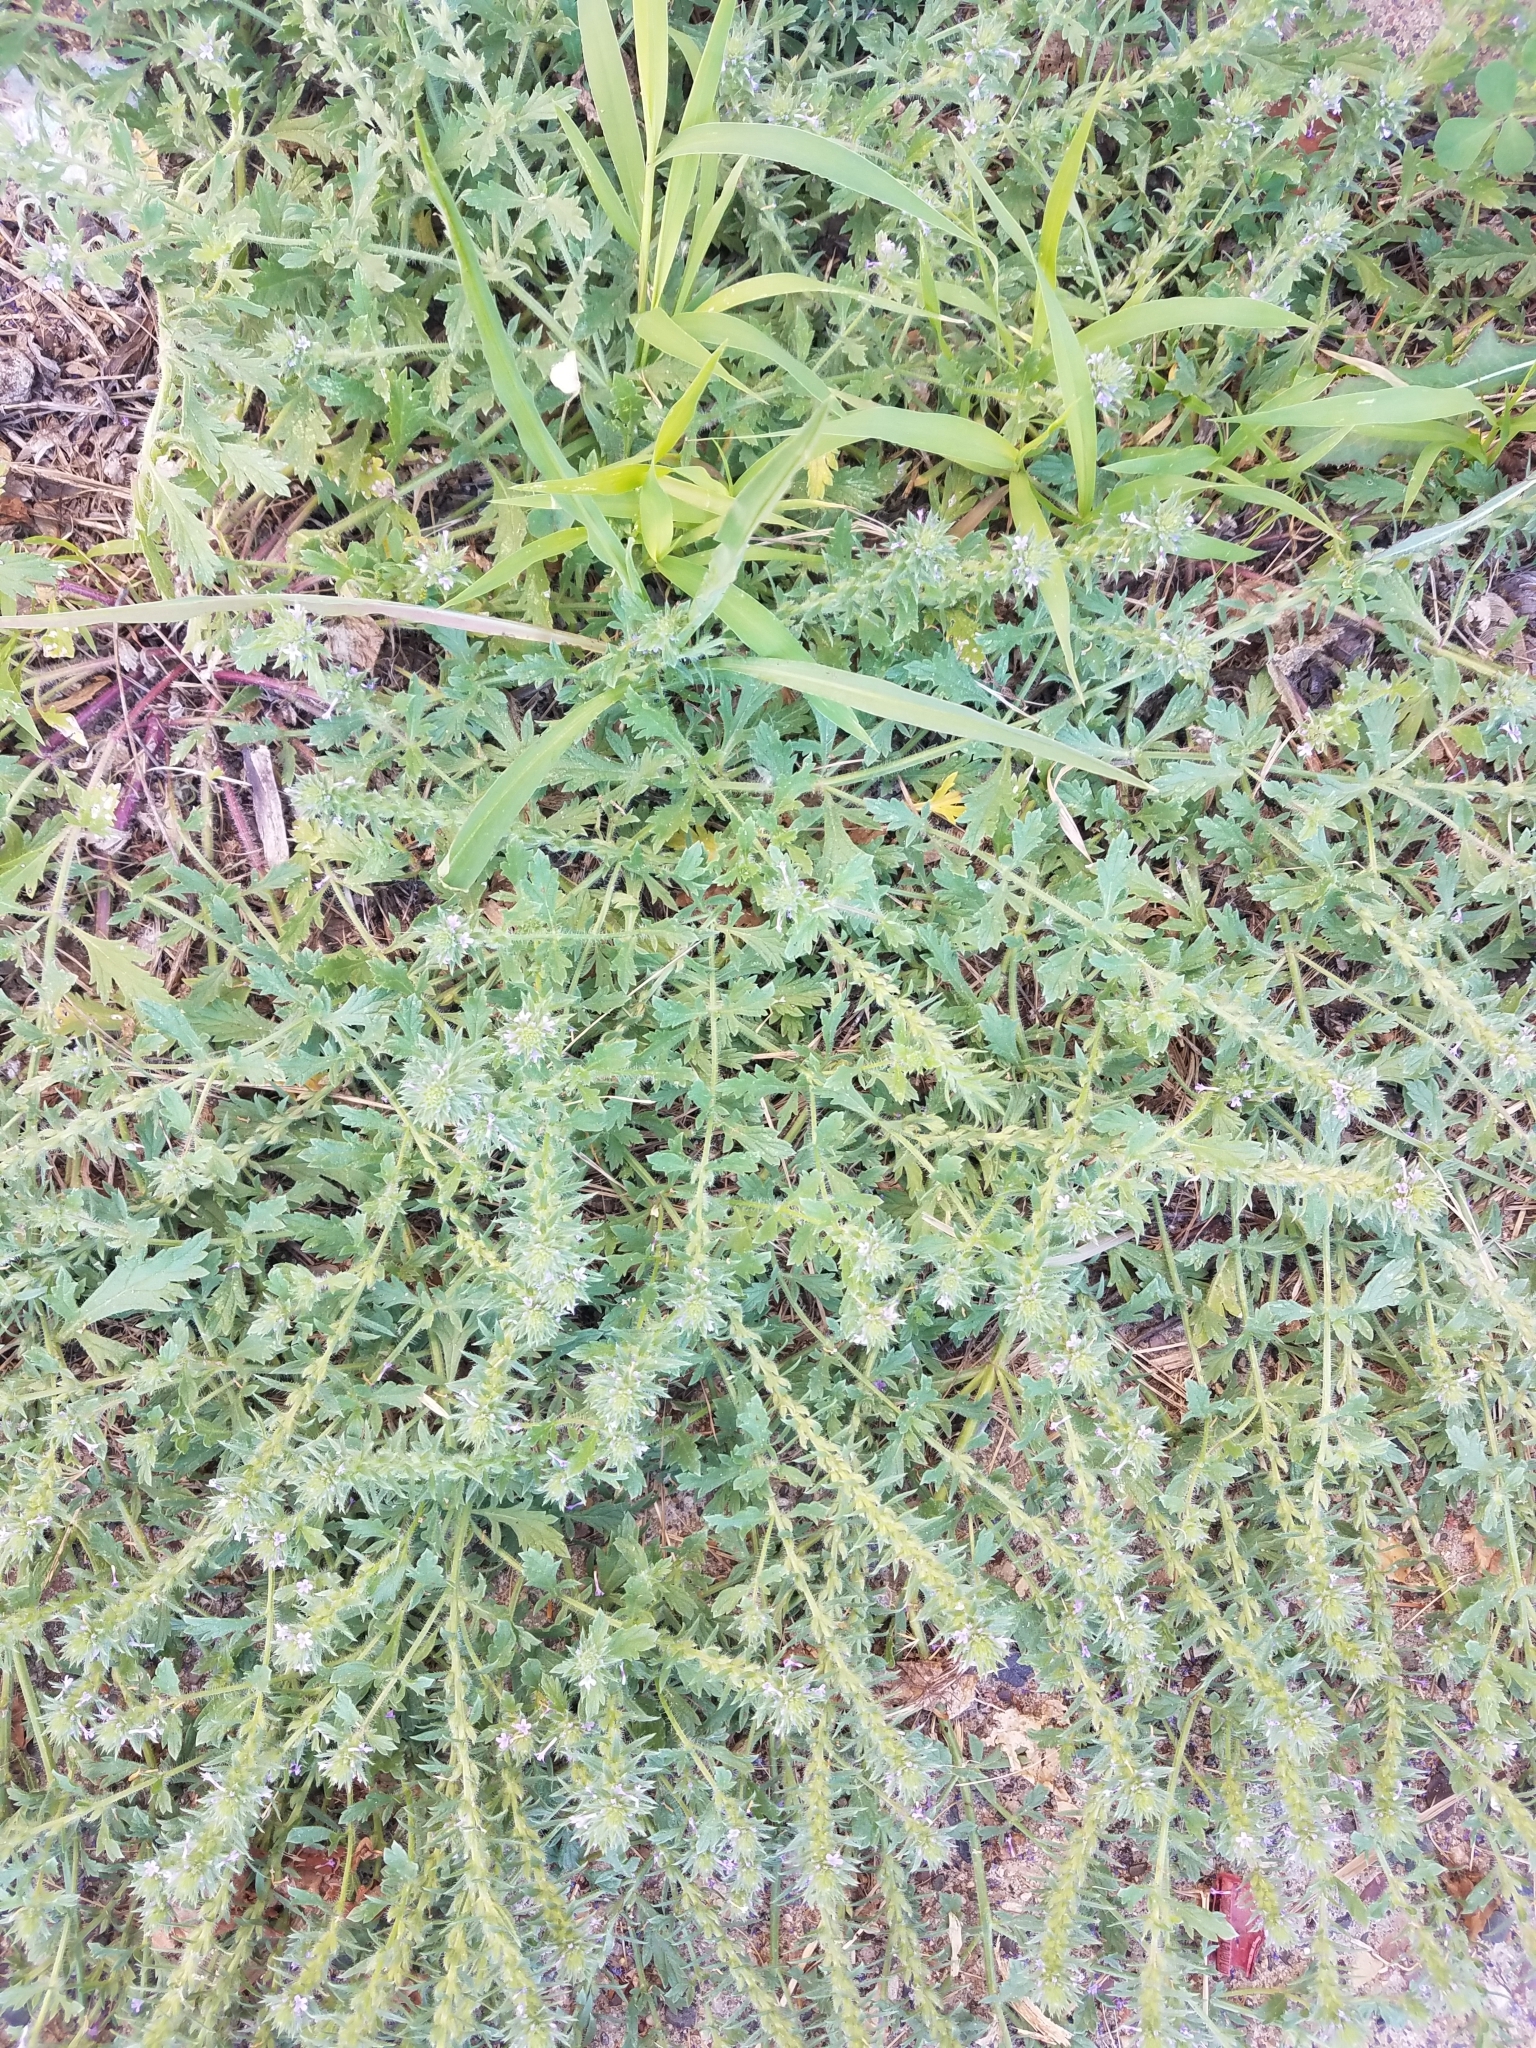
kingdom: Plantae
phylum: Tracheophyta
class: Magnoliopsida
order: Lamiales
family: Verbenaceae
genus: Verbena
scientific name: Verbena bracteata
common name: Bracted vervain
